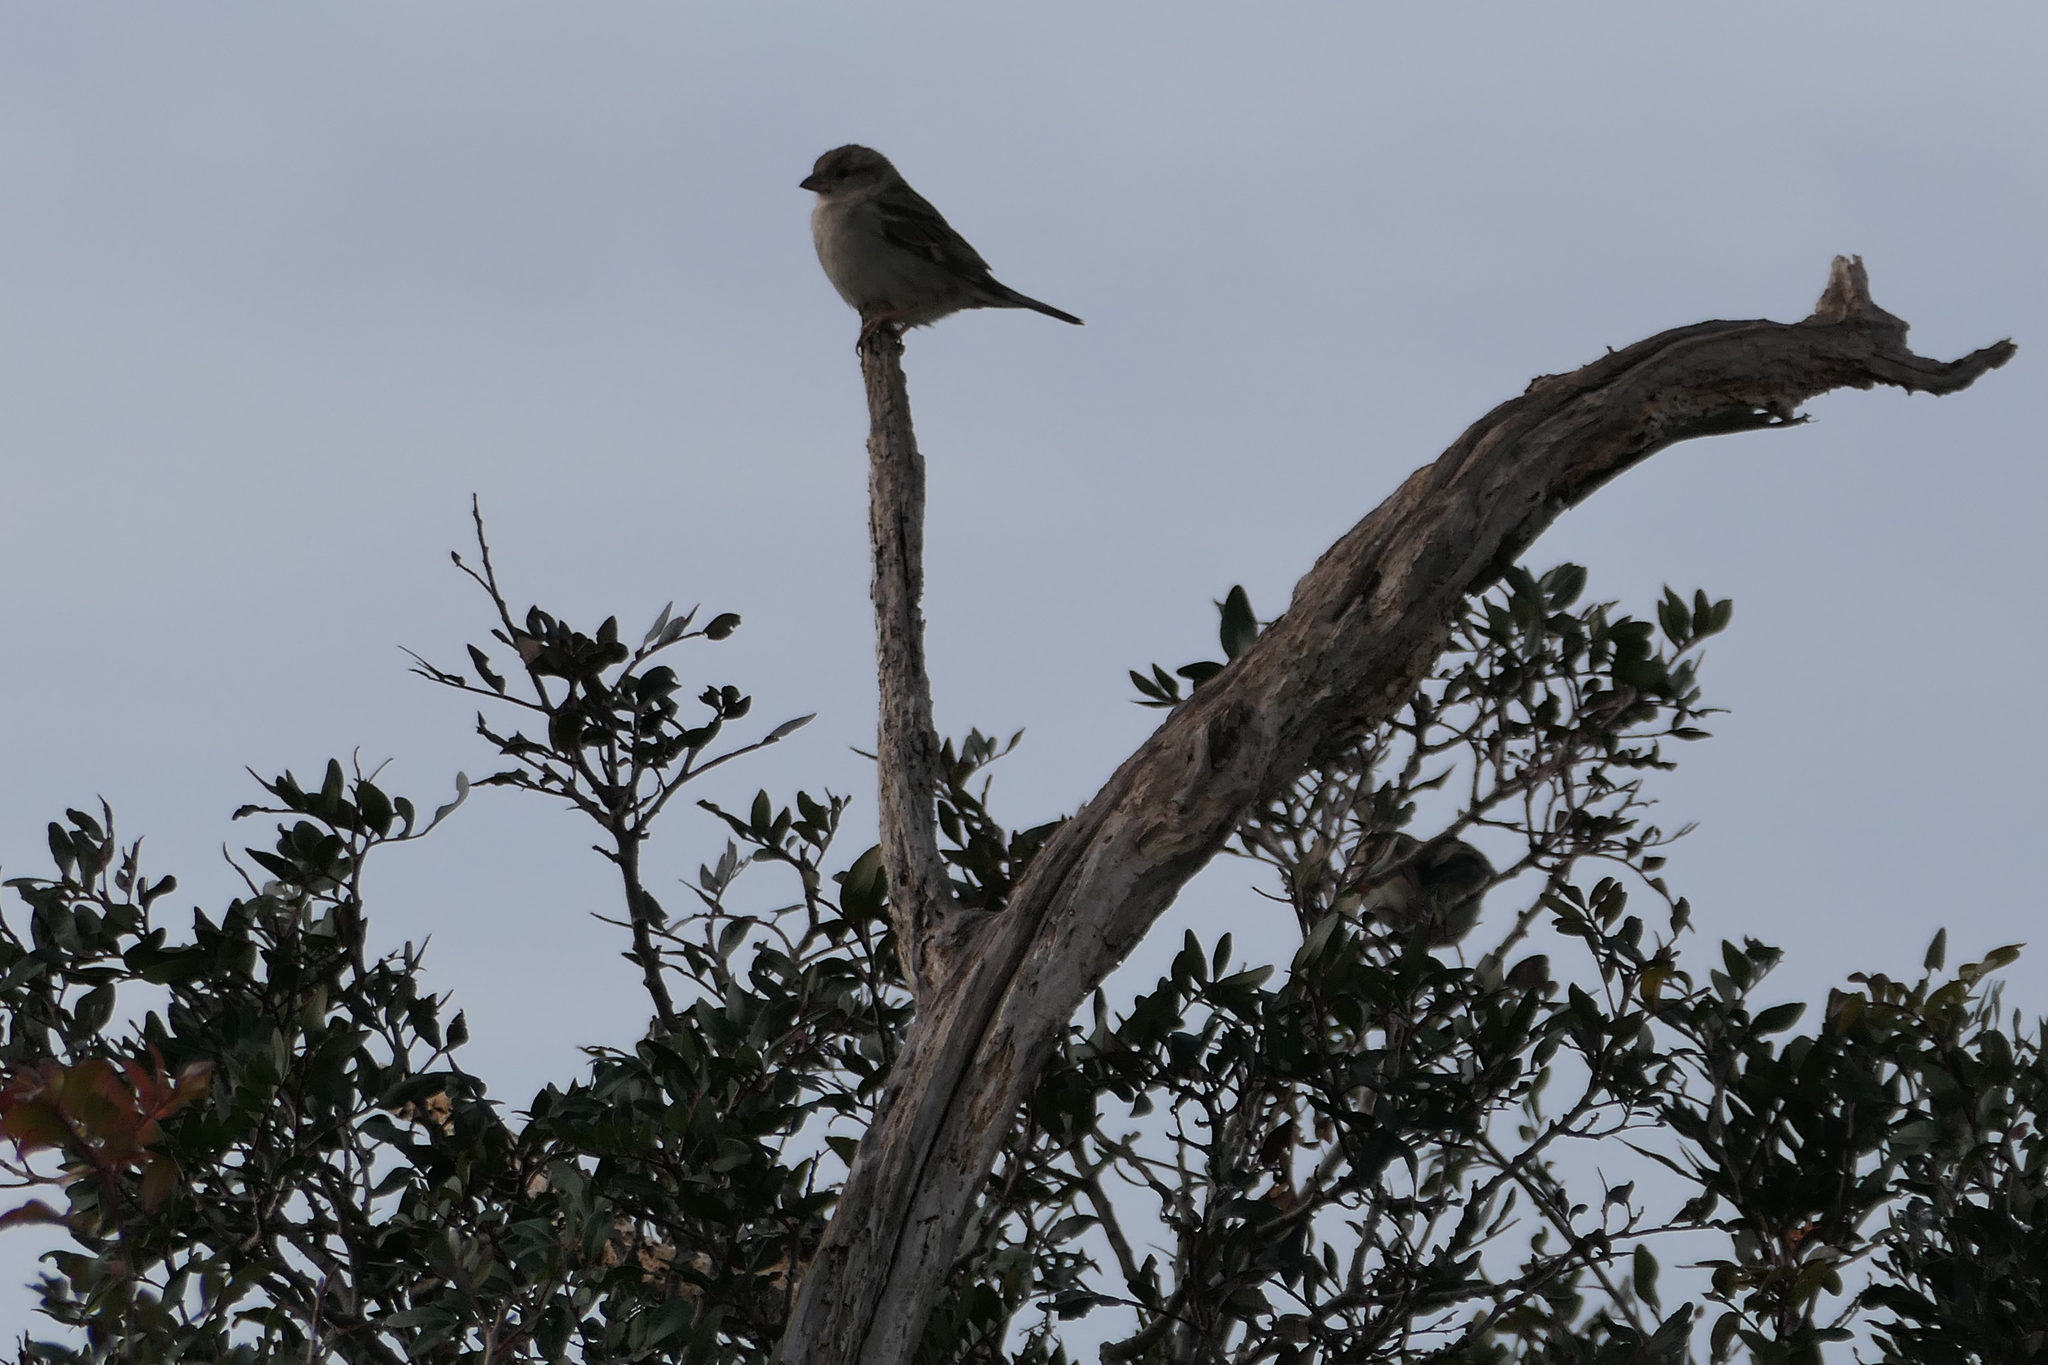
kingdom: Animalia
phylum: Chordata
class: Aves
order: Passeriformes
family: Passeridae
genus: Passer
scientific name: Passer domesticus
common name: House sparrow
